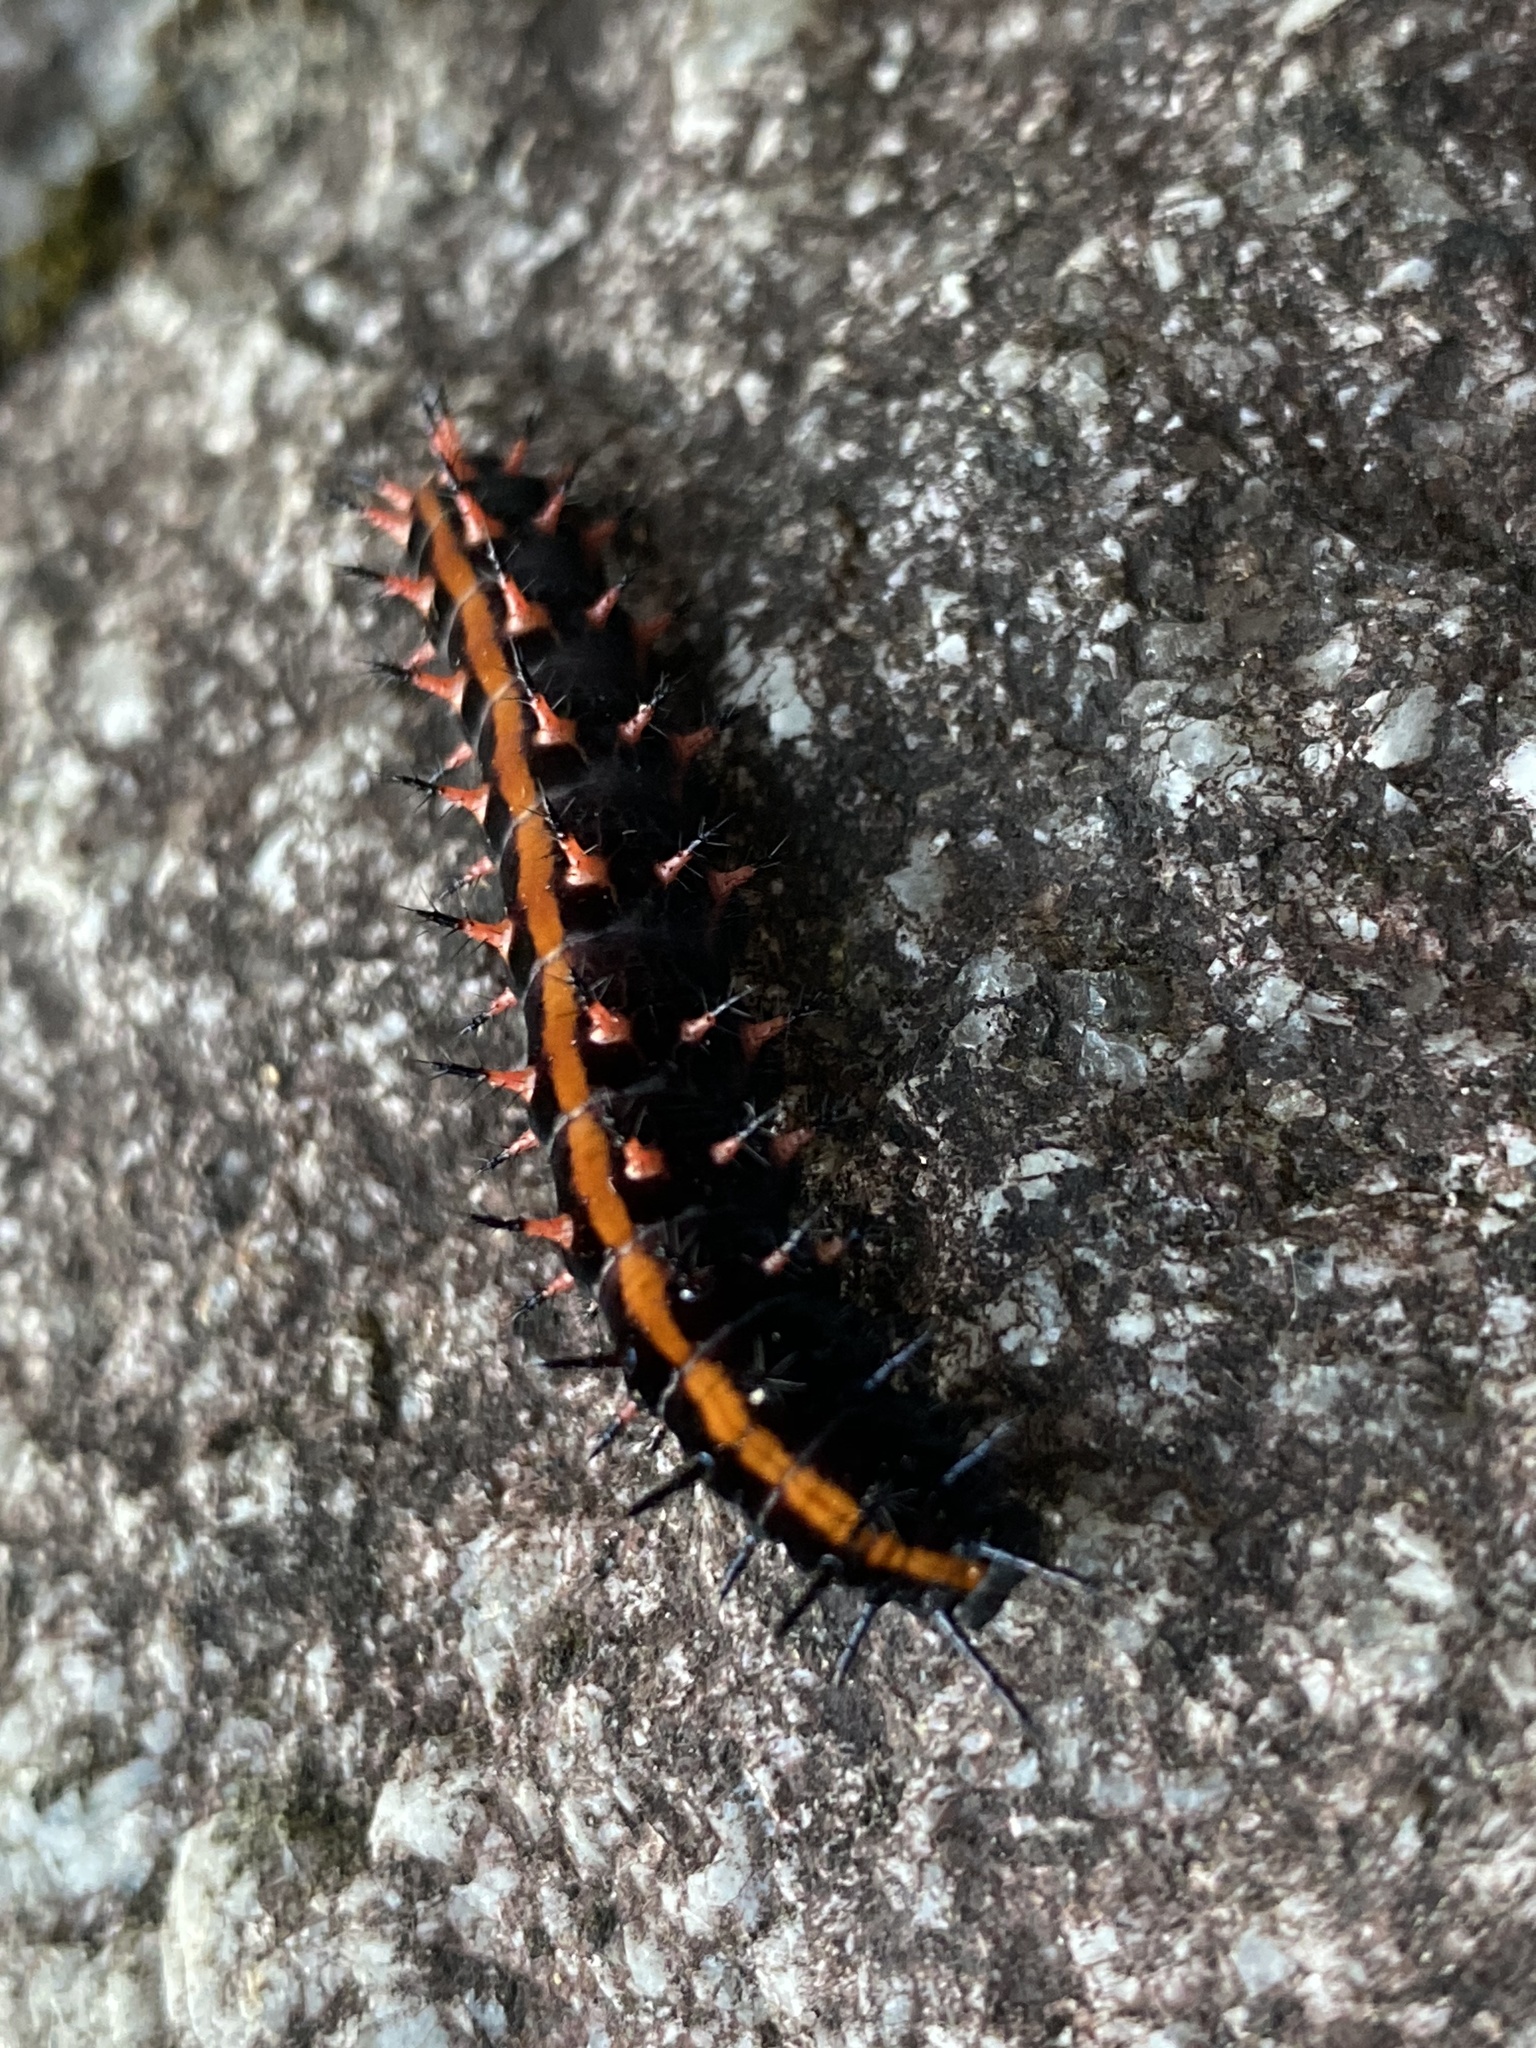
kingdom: Animalia
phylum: Arthropoda
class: Insecta
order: Lepidoptera
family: Nymphalidae
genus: Argynnis
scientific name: Argynnis hyperbius
